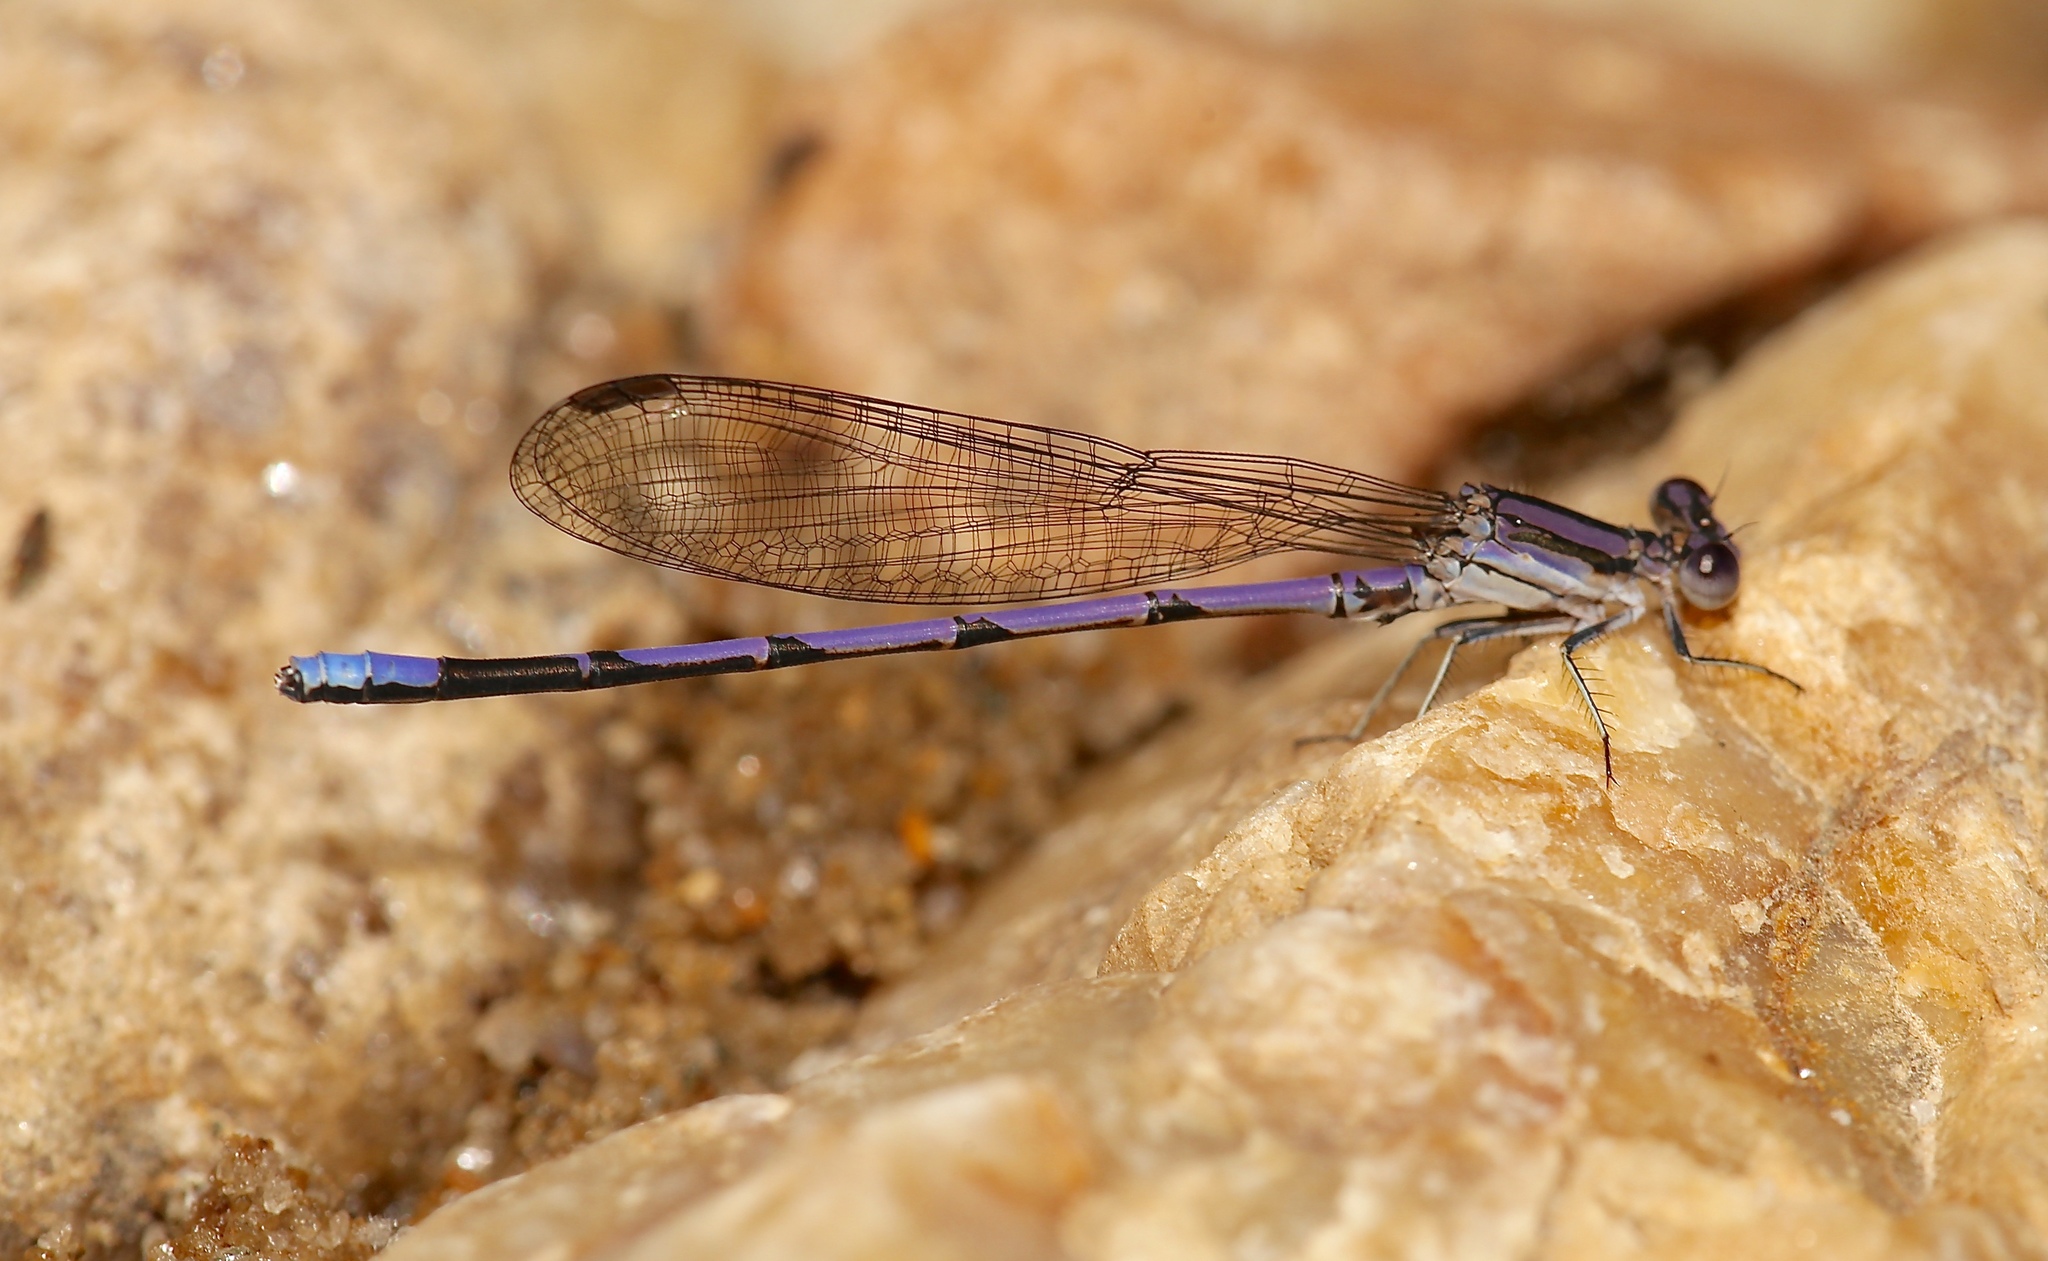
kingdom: Animalia
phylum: Arthropoda
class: Insecta
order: Odonata
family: Coenagrionidae
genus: Argia
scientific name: Argia fumipennis
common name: Variable dancer
